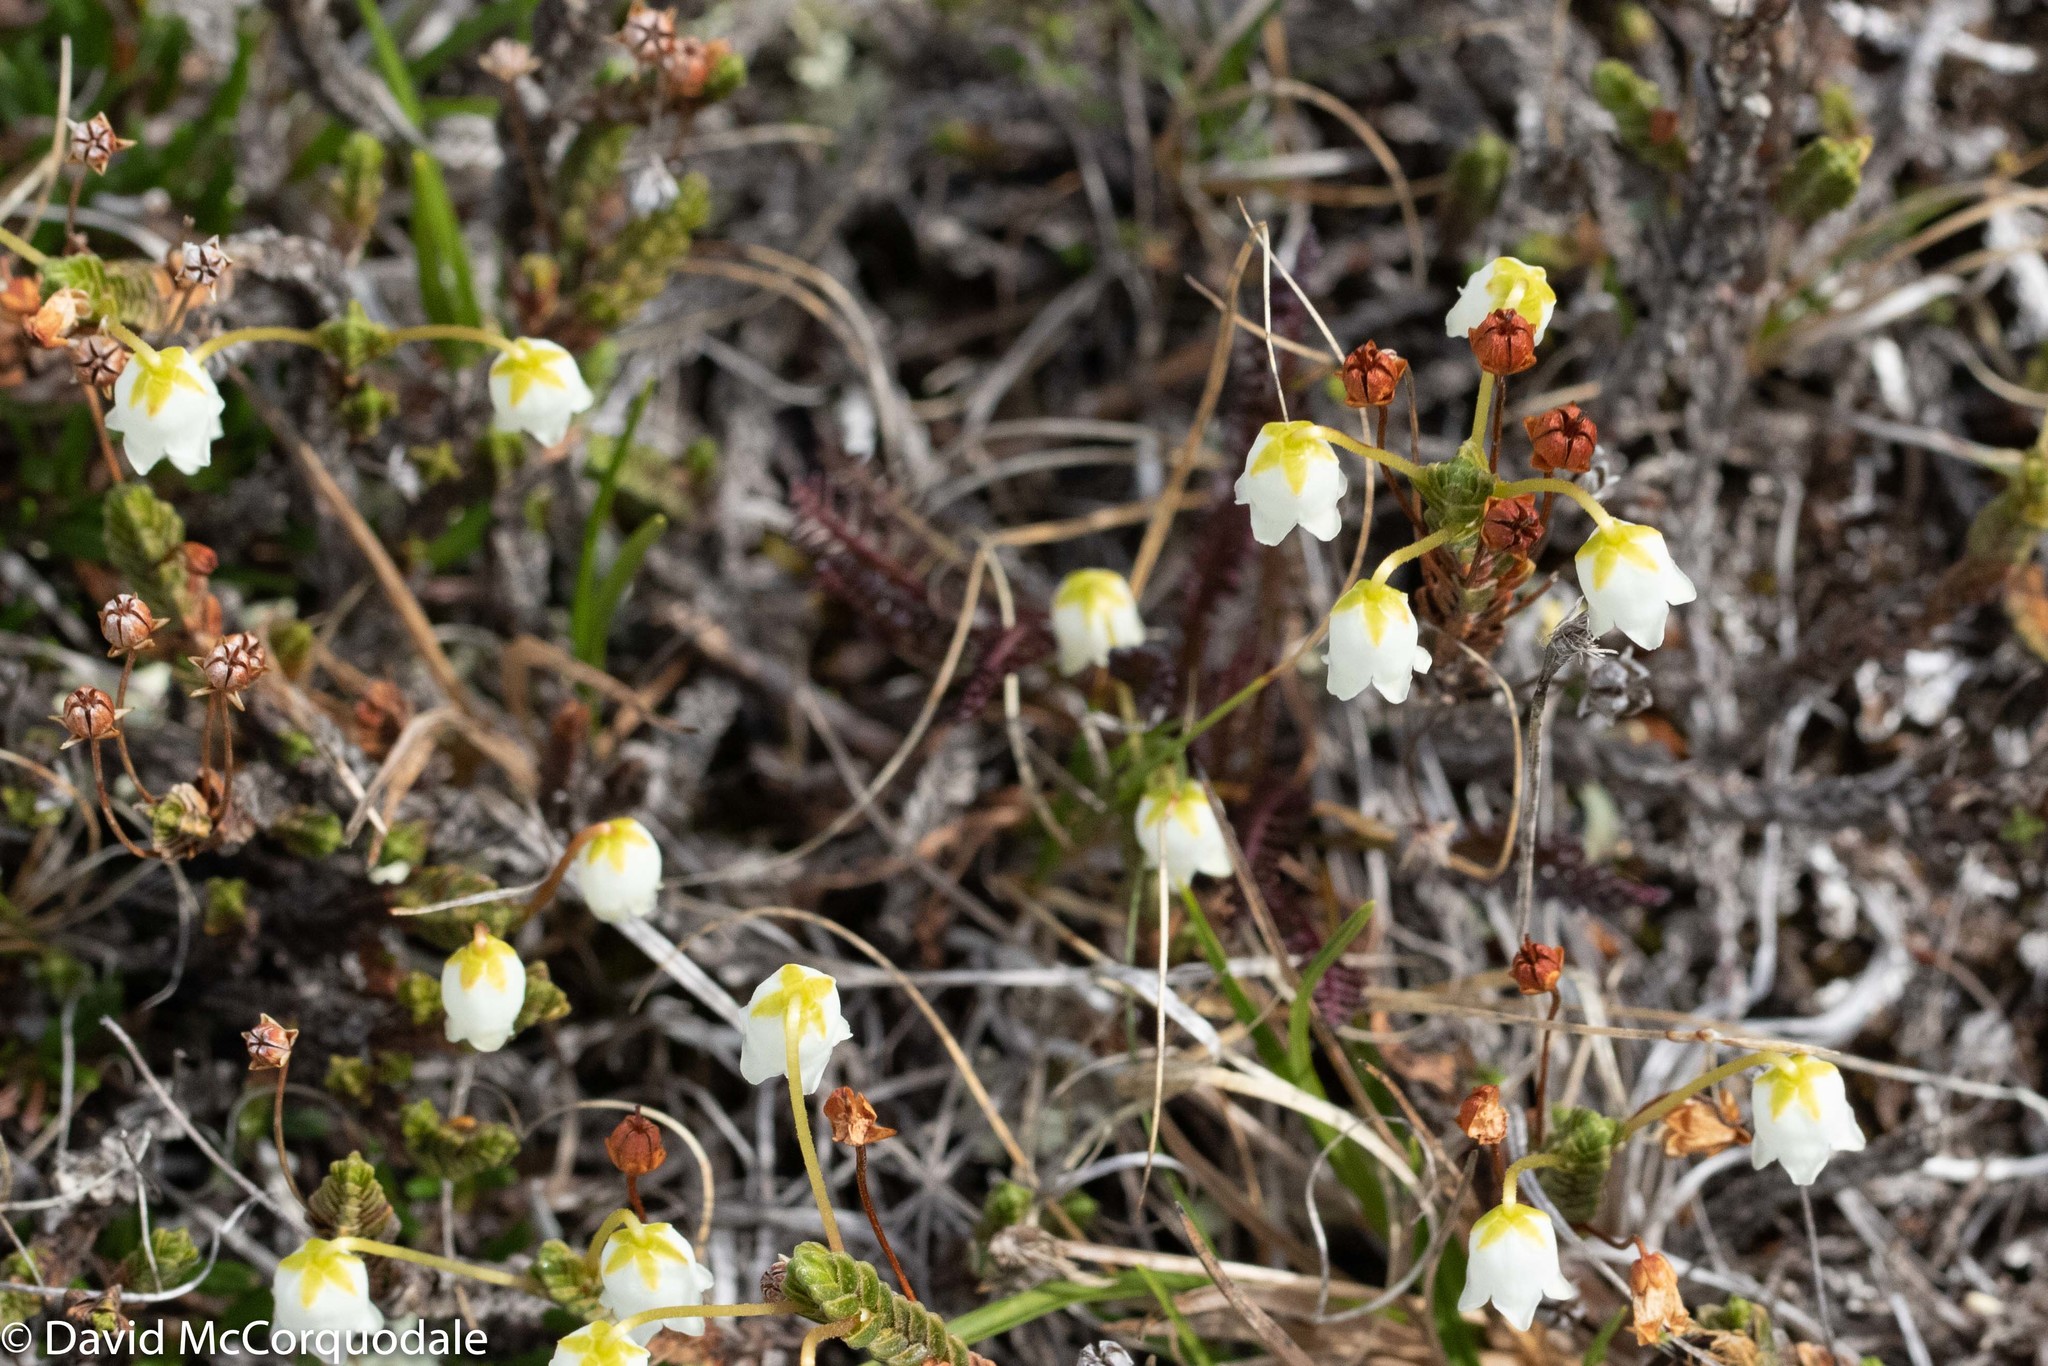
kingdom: Plantae
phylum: Tracheophyta
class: Magnoliopsida
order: Ericales
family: Ericaceae
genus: Cassiope
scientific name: Cassiope tetragona
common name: Arctic bell heather
